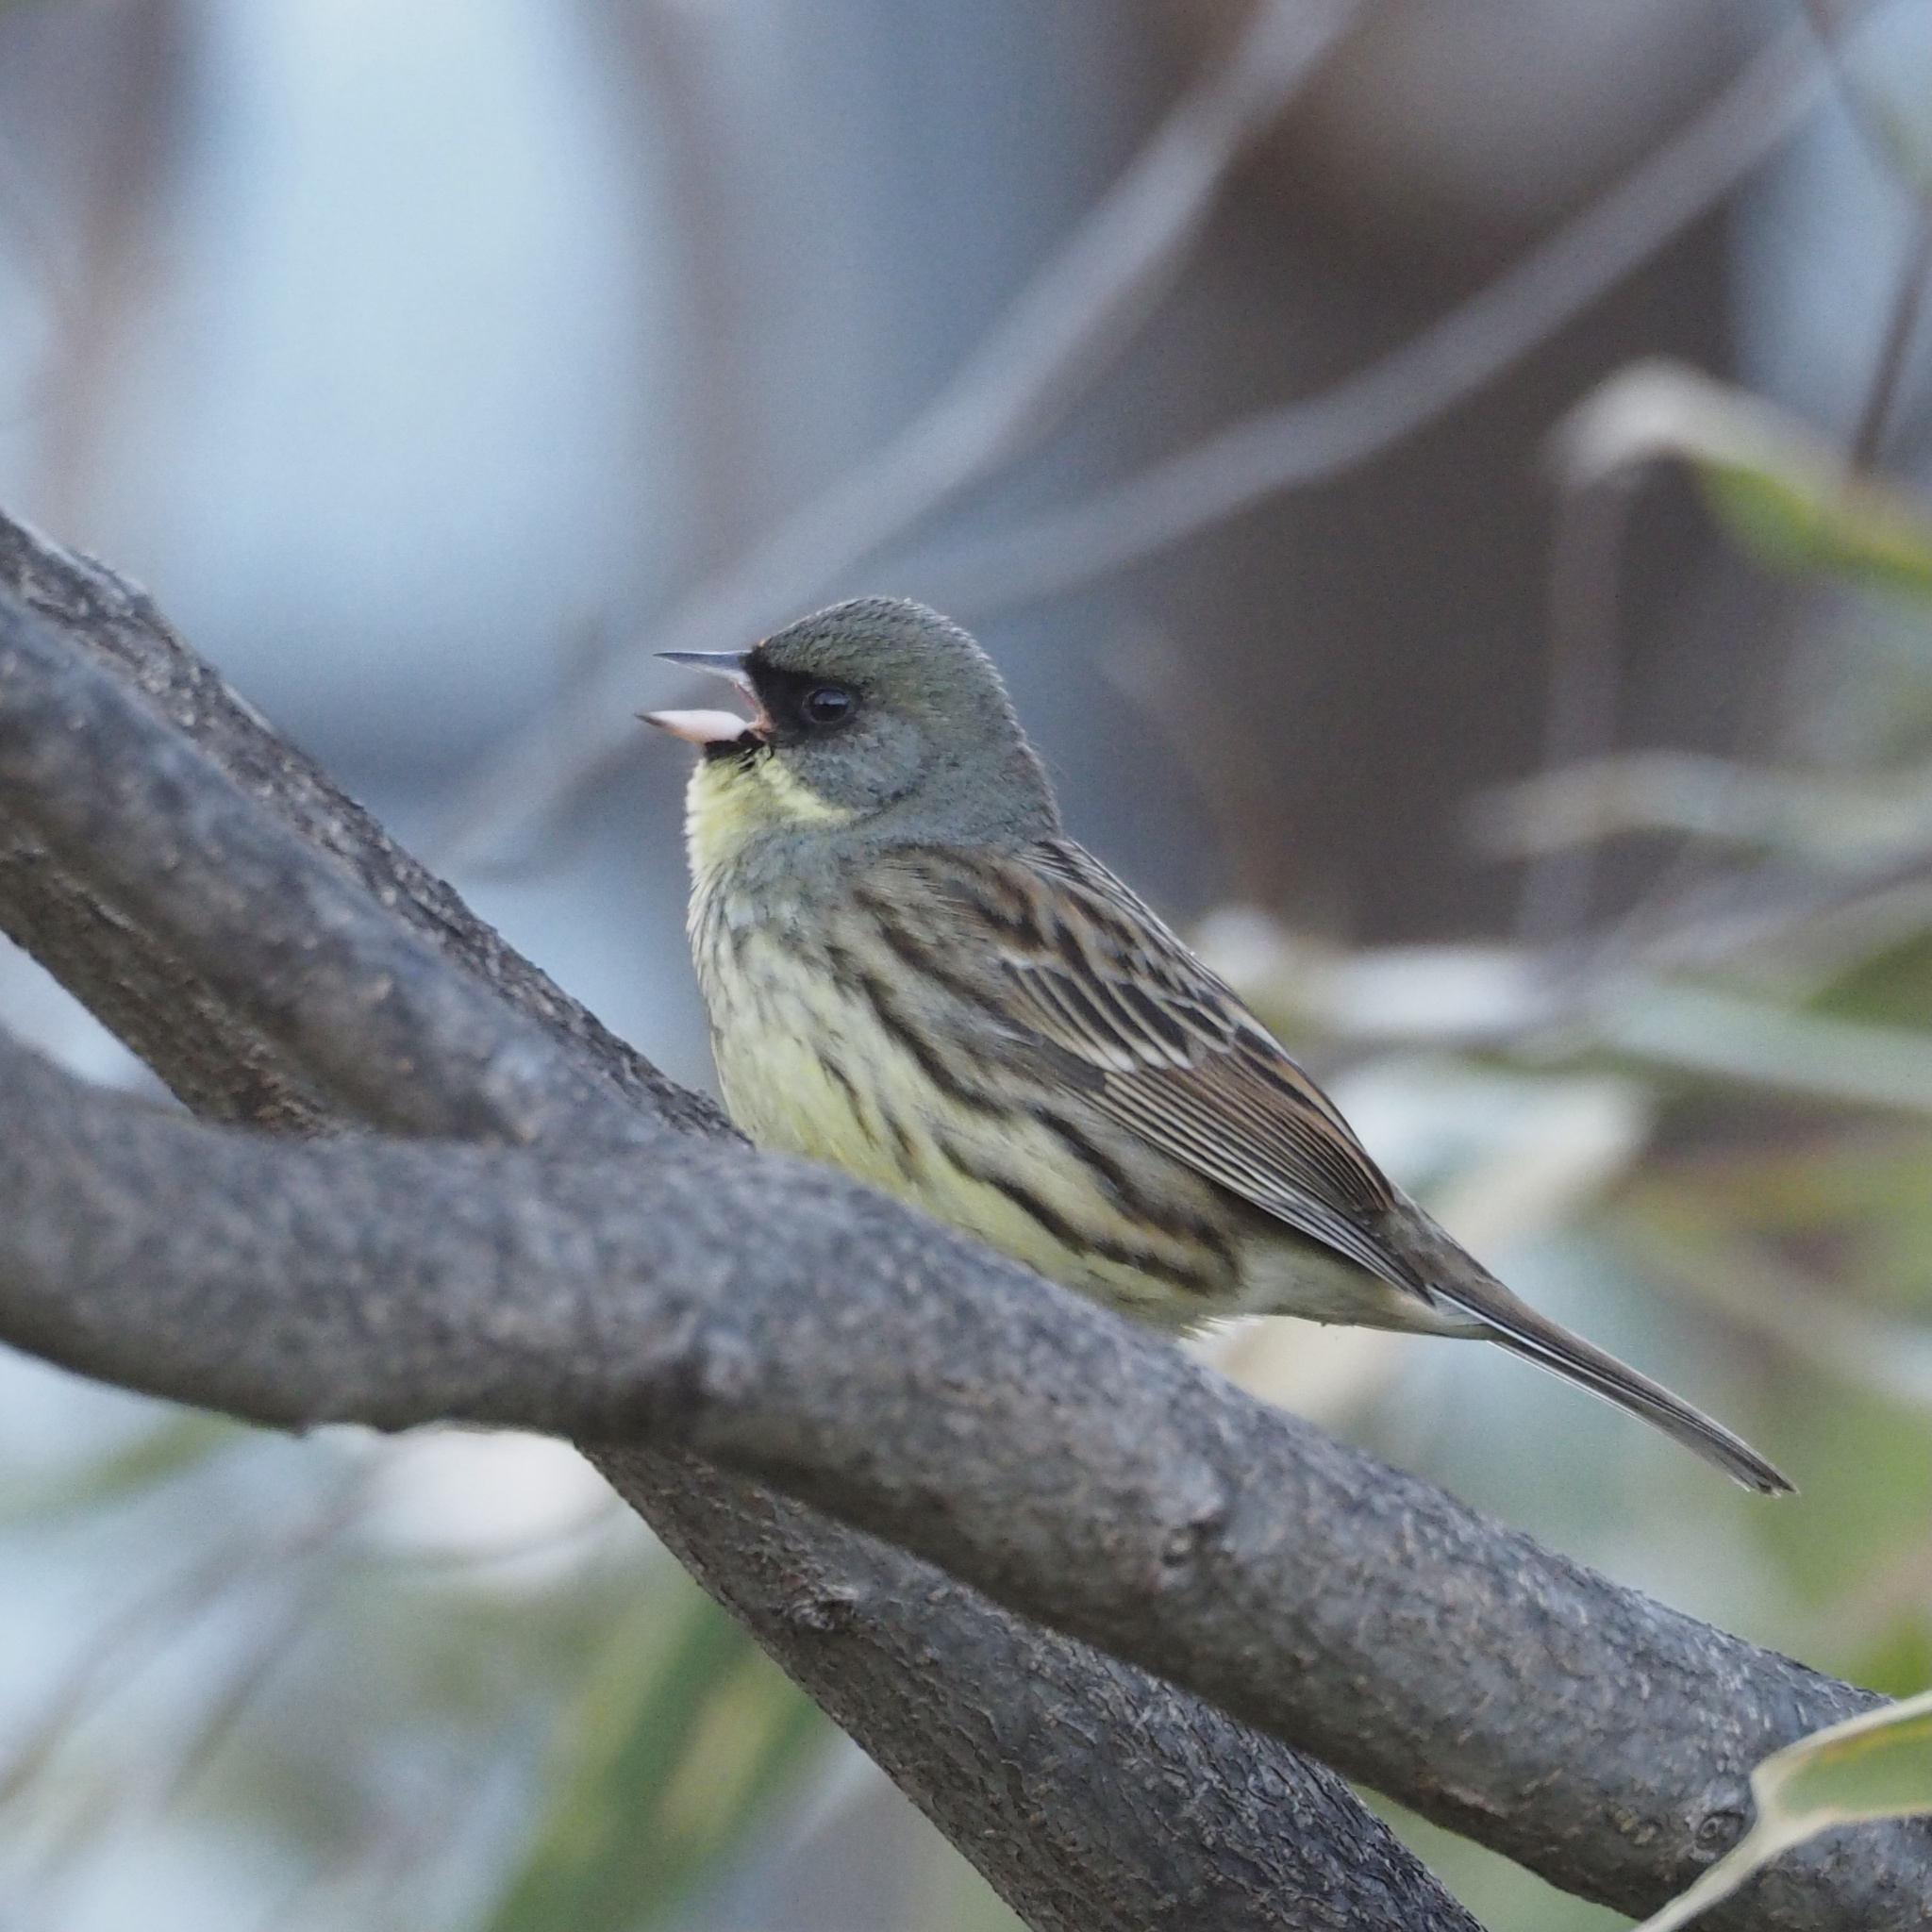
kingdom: Animalia
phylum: Chordata
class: Aves
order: Passeriformes
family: Emberizidae
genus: Emberiza
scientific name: Emberiza personata
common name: Masked bunting
